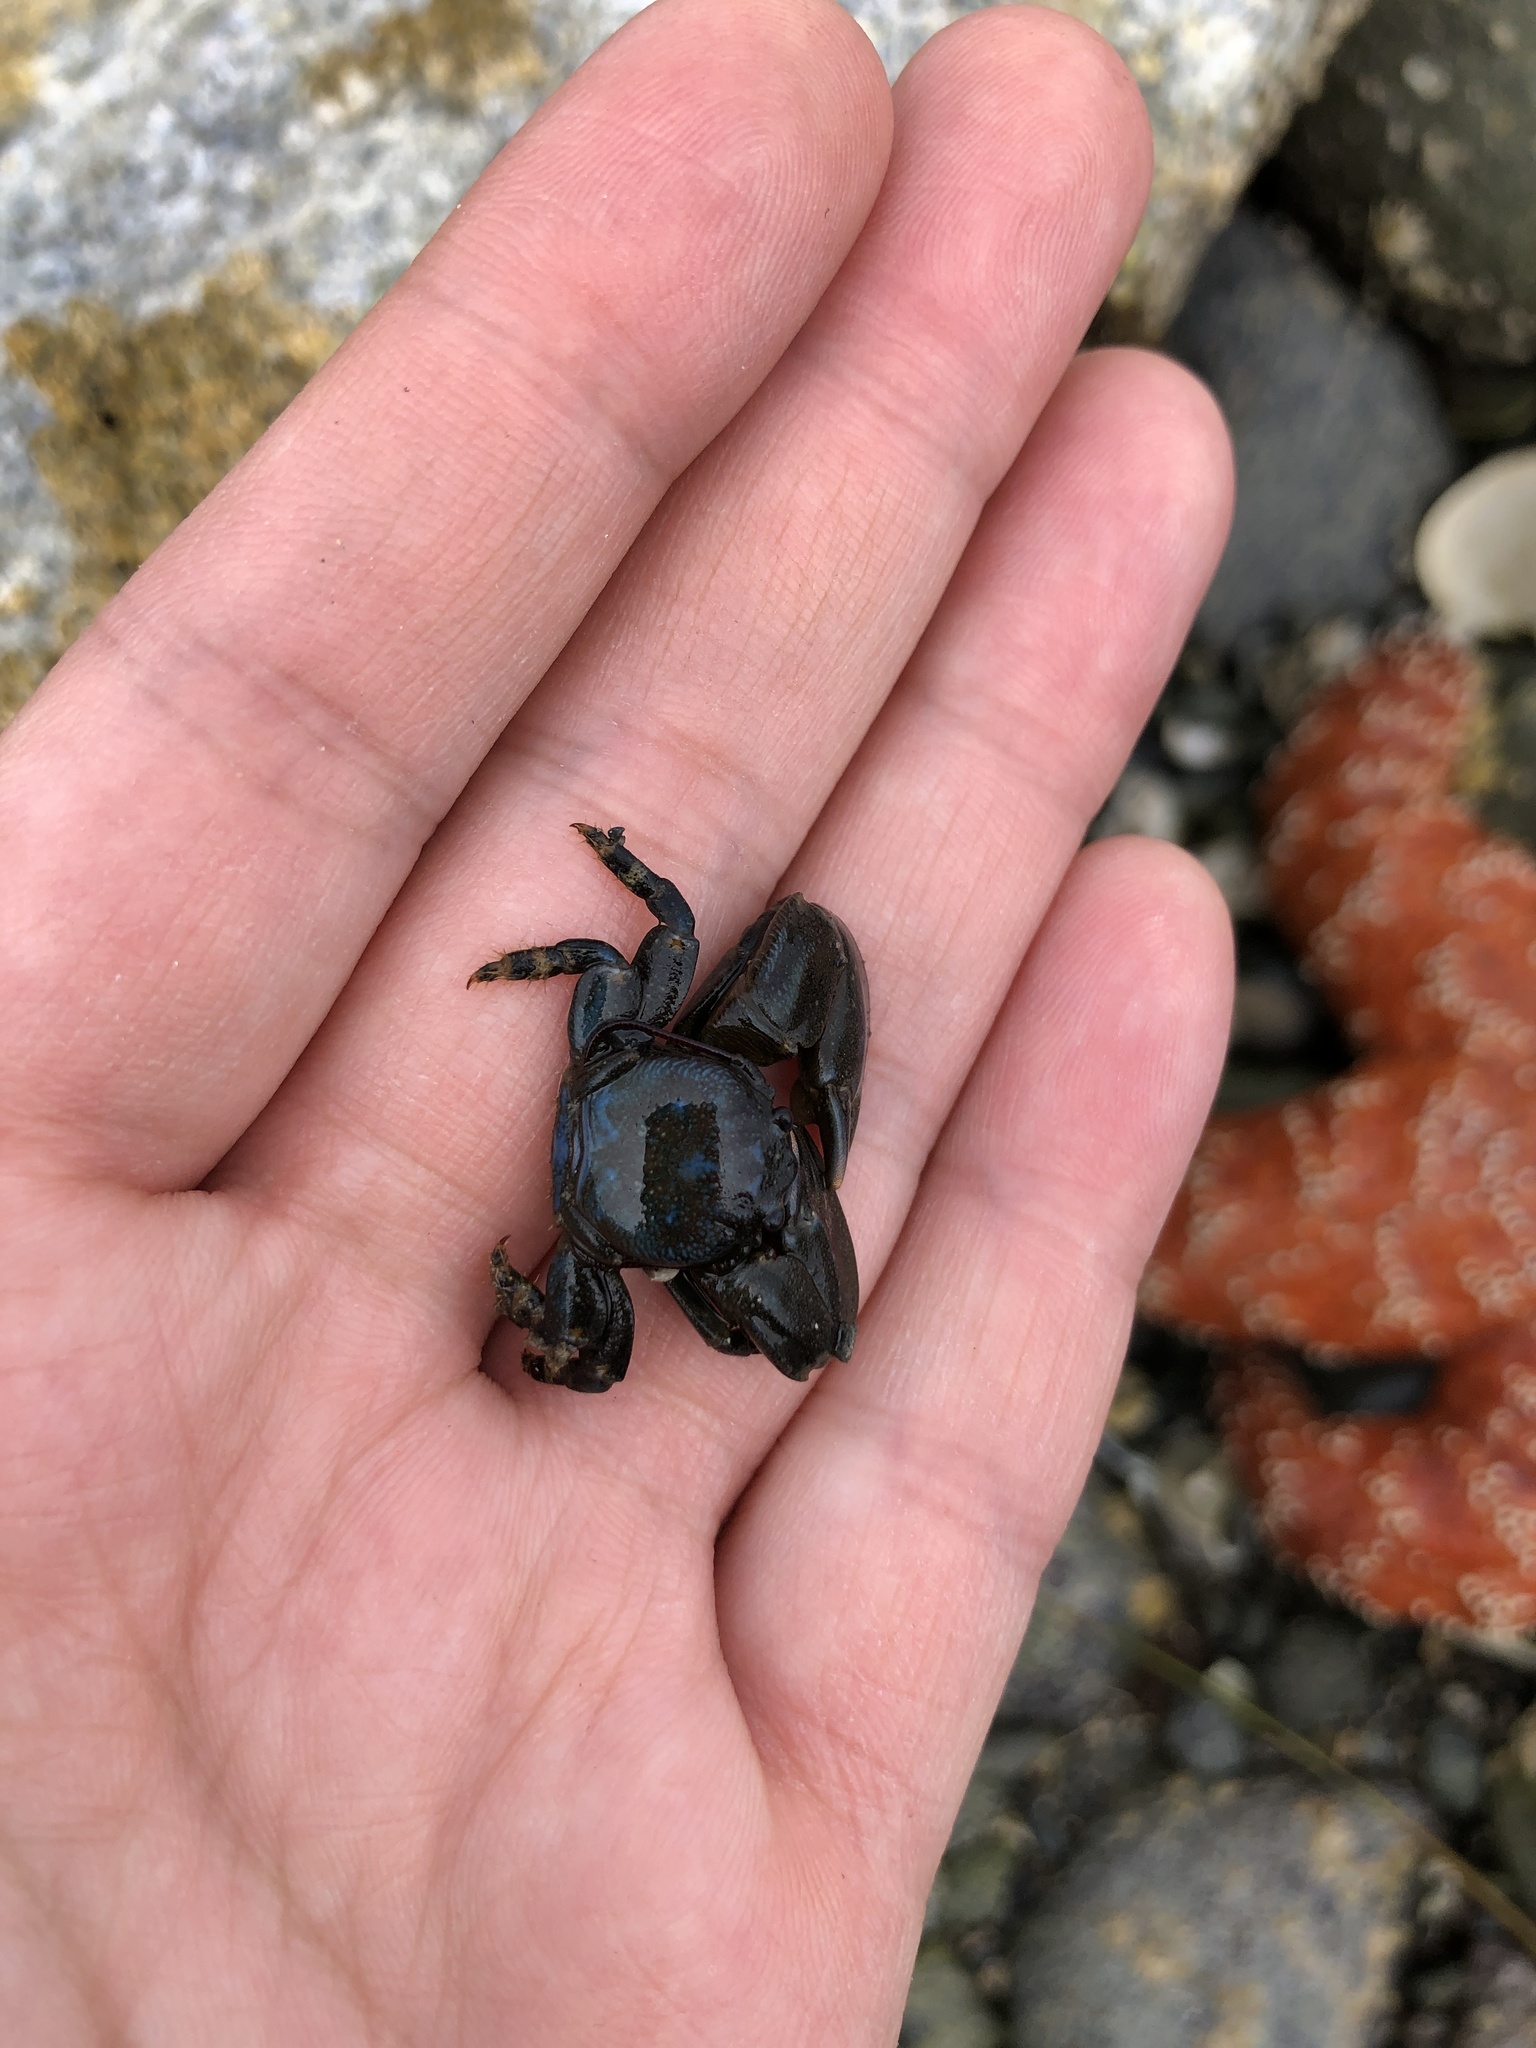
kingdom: Animalia
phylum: Arthropoda
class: Malacostraca
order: Decapoda
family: Porcellanidae
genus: Petrolisthes
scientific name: Petrolisthes cinctipes
